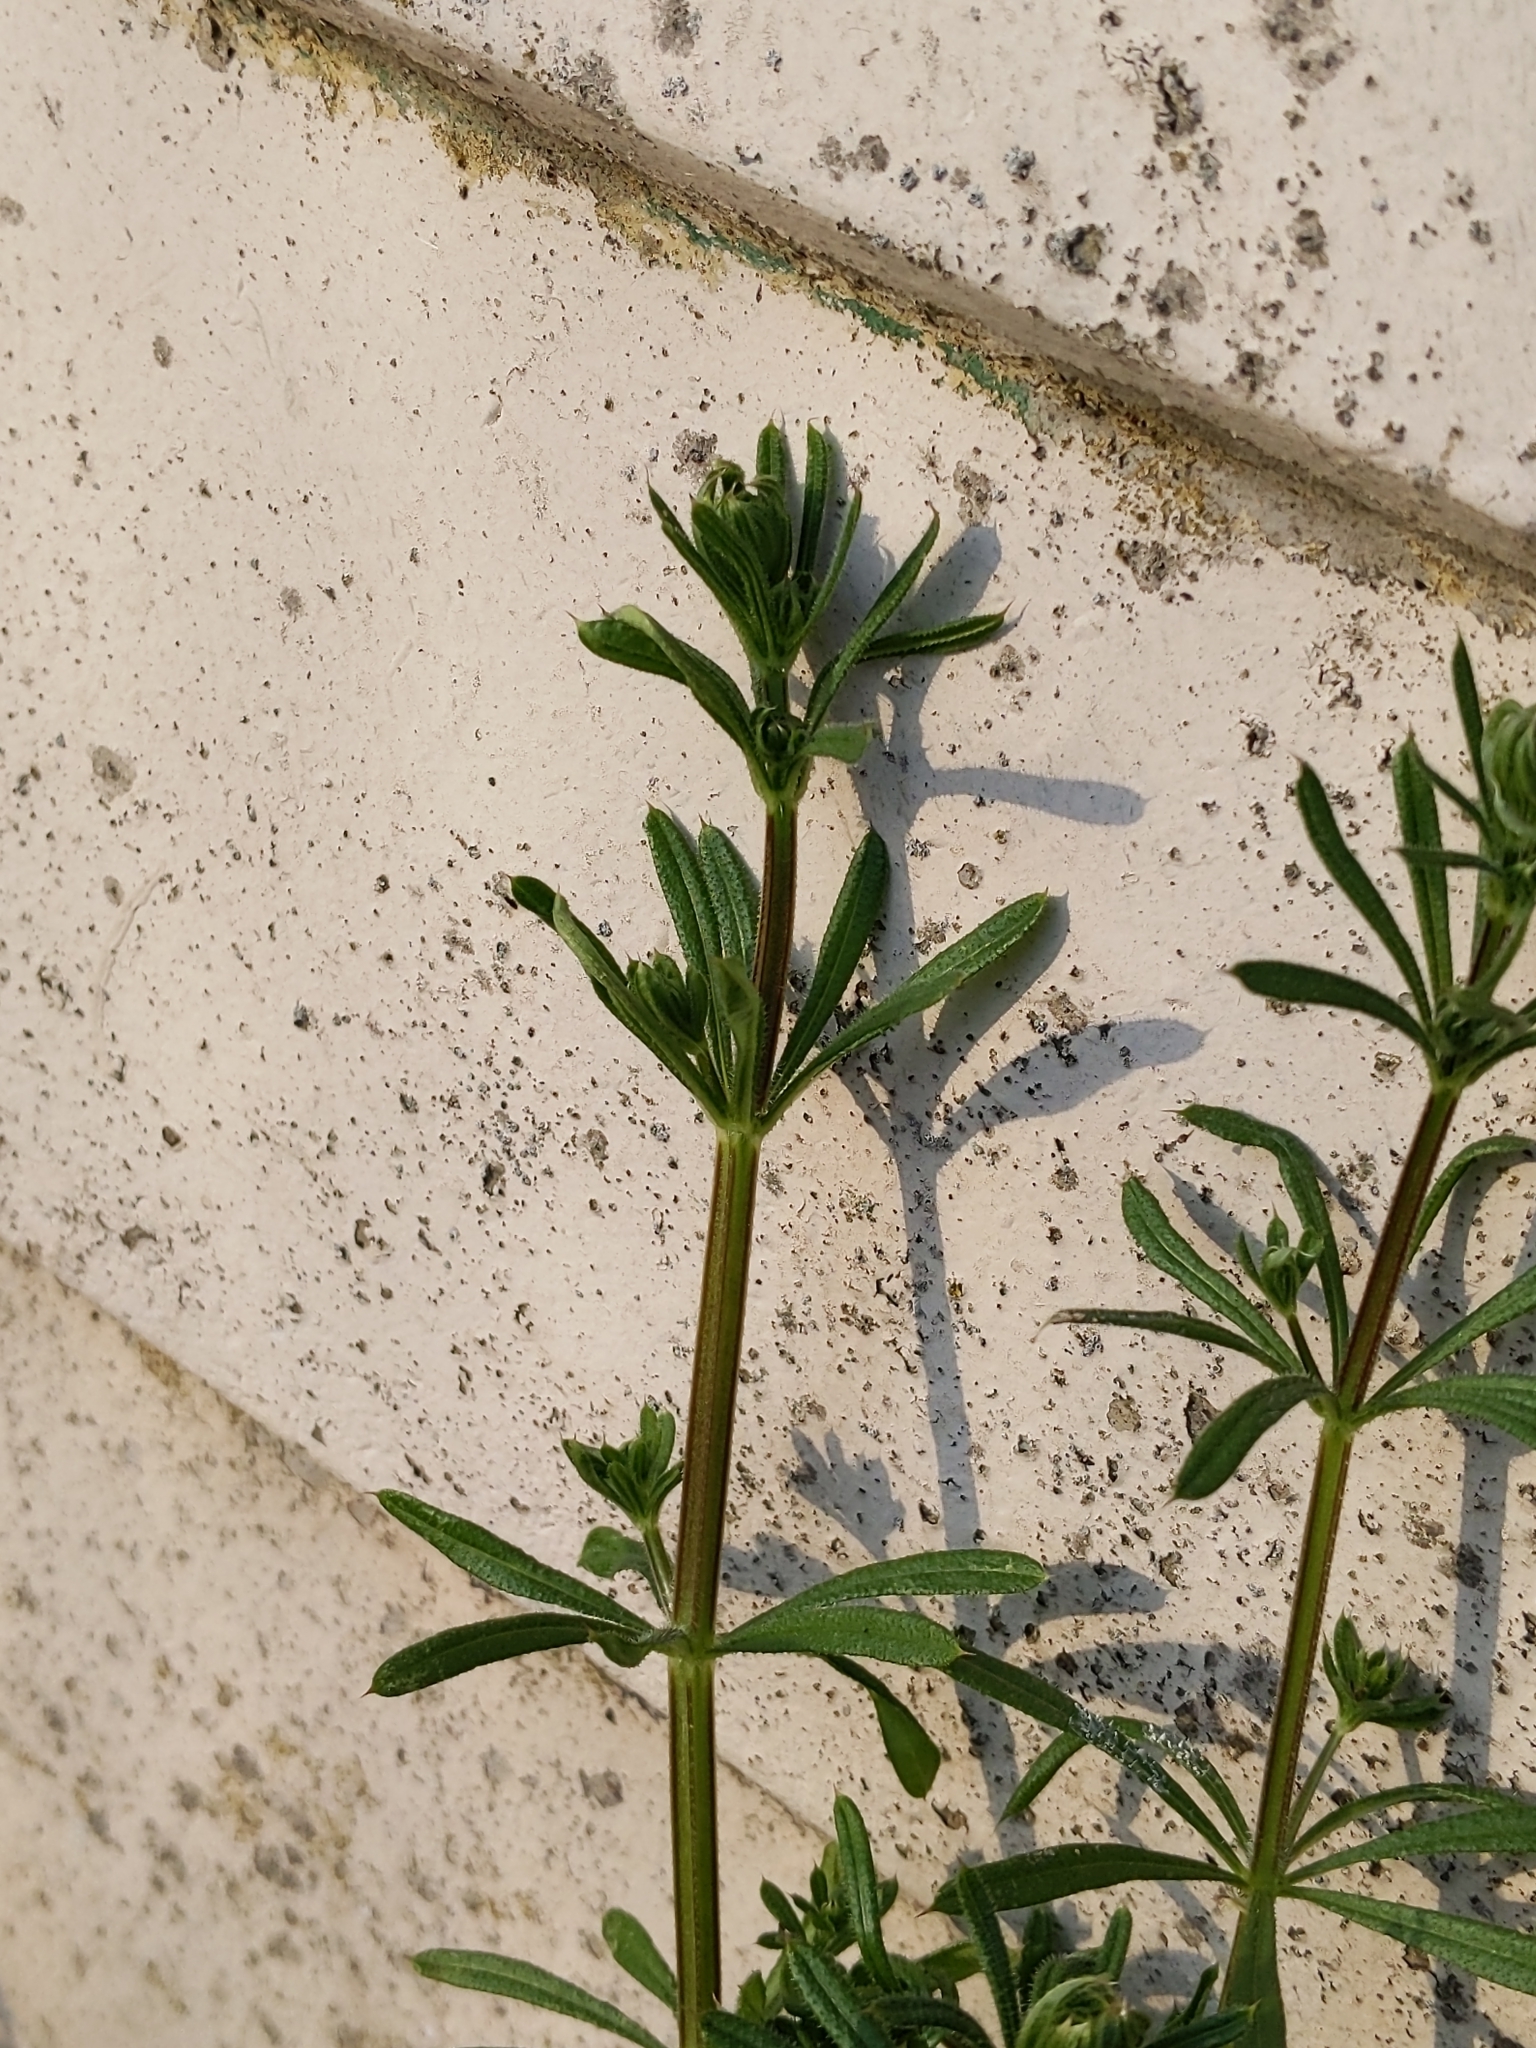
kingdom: Plantae
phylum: Tracheophyta
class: Magnoliopsida
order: Gentianales
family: Rubiaceae
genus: Galium
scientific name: Galium aparine
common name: Cleavers
